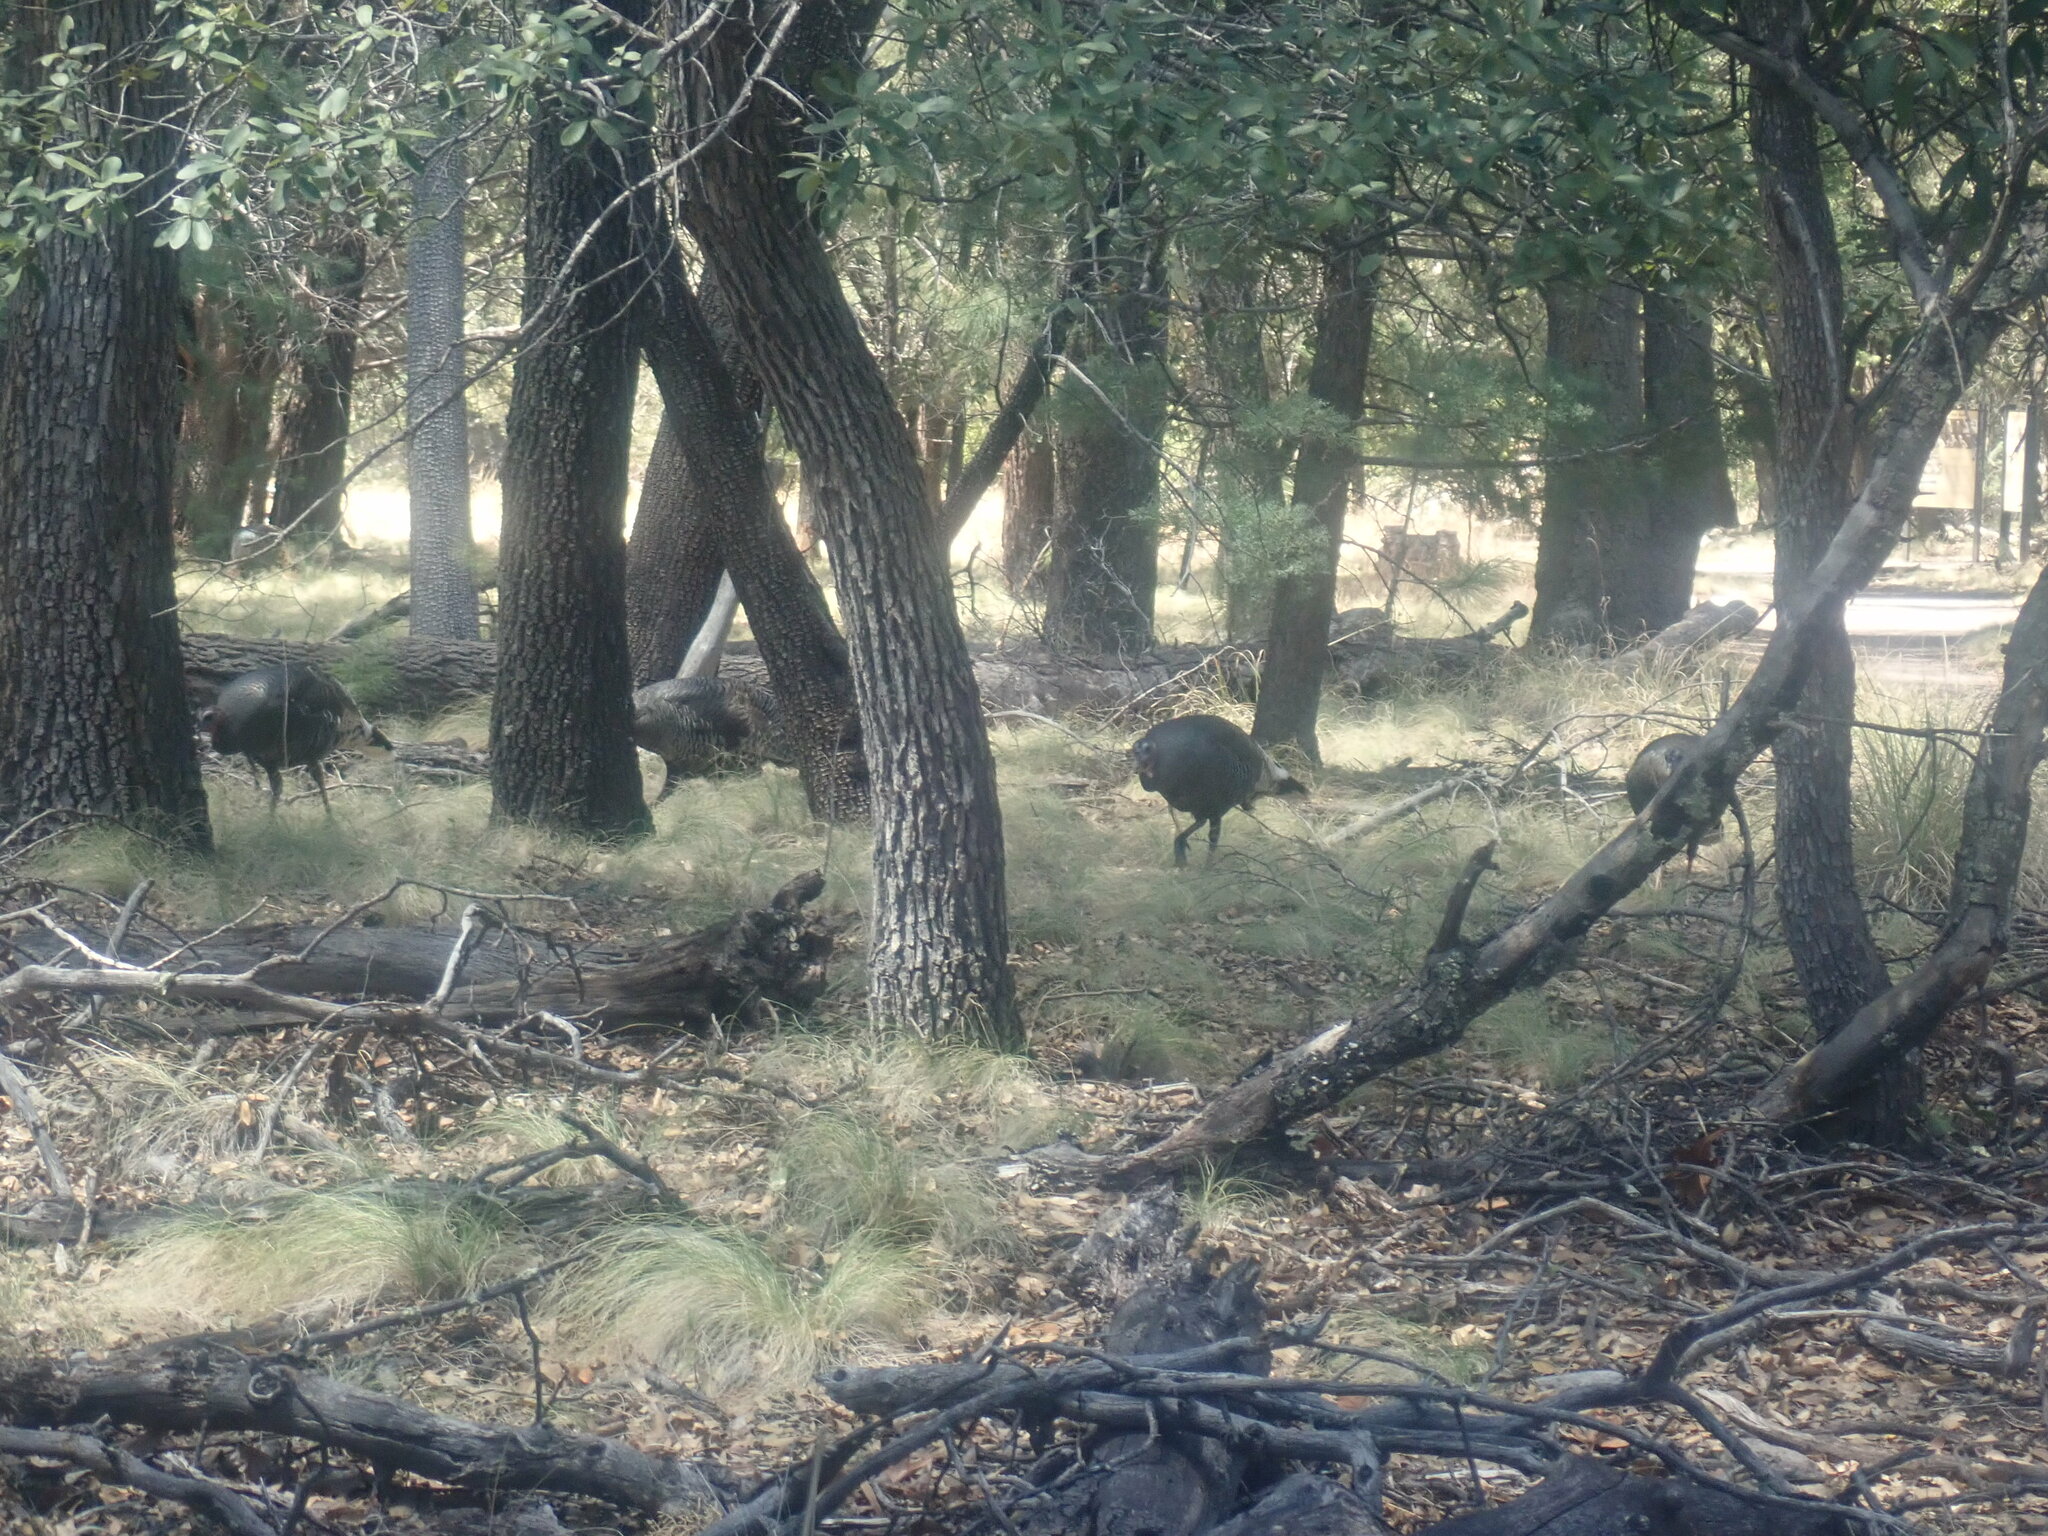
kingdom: Animalia
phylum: Chordata
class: Aves
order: Galliformes
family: Phasianidae
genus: Meleagris
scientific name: Meleagris gallopavo
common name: Wild turkey
